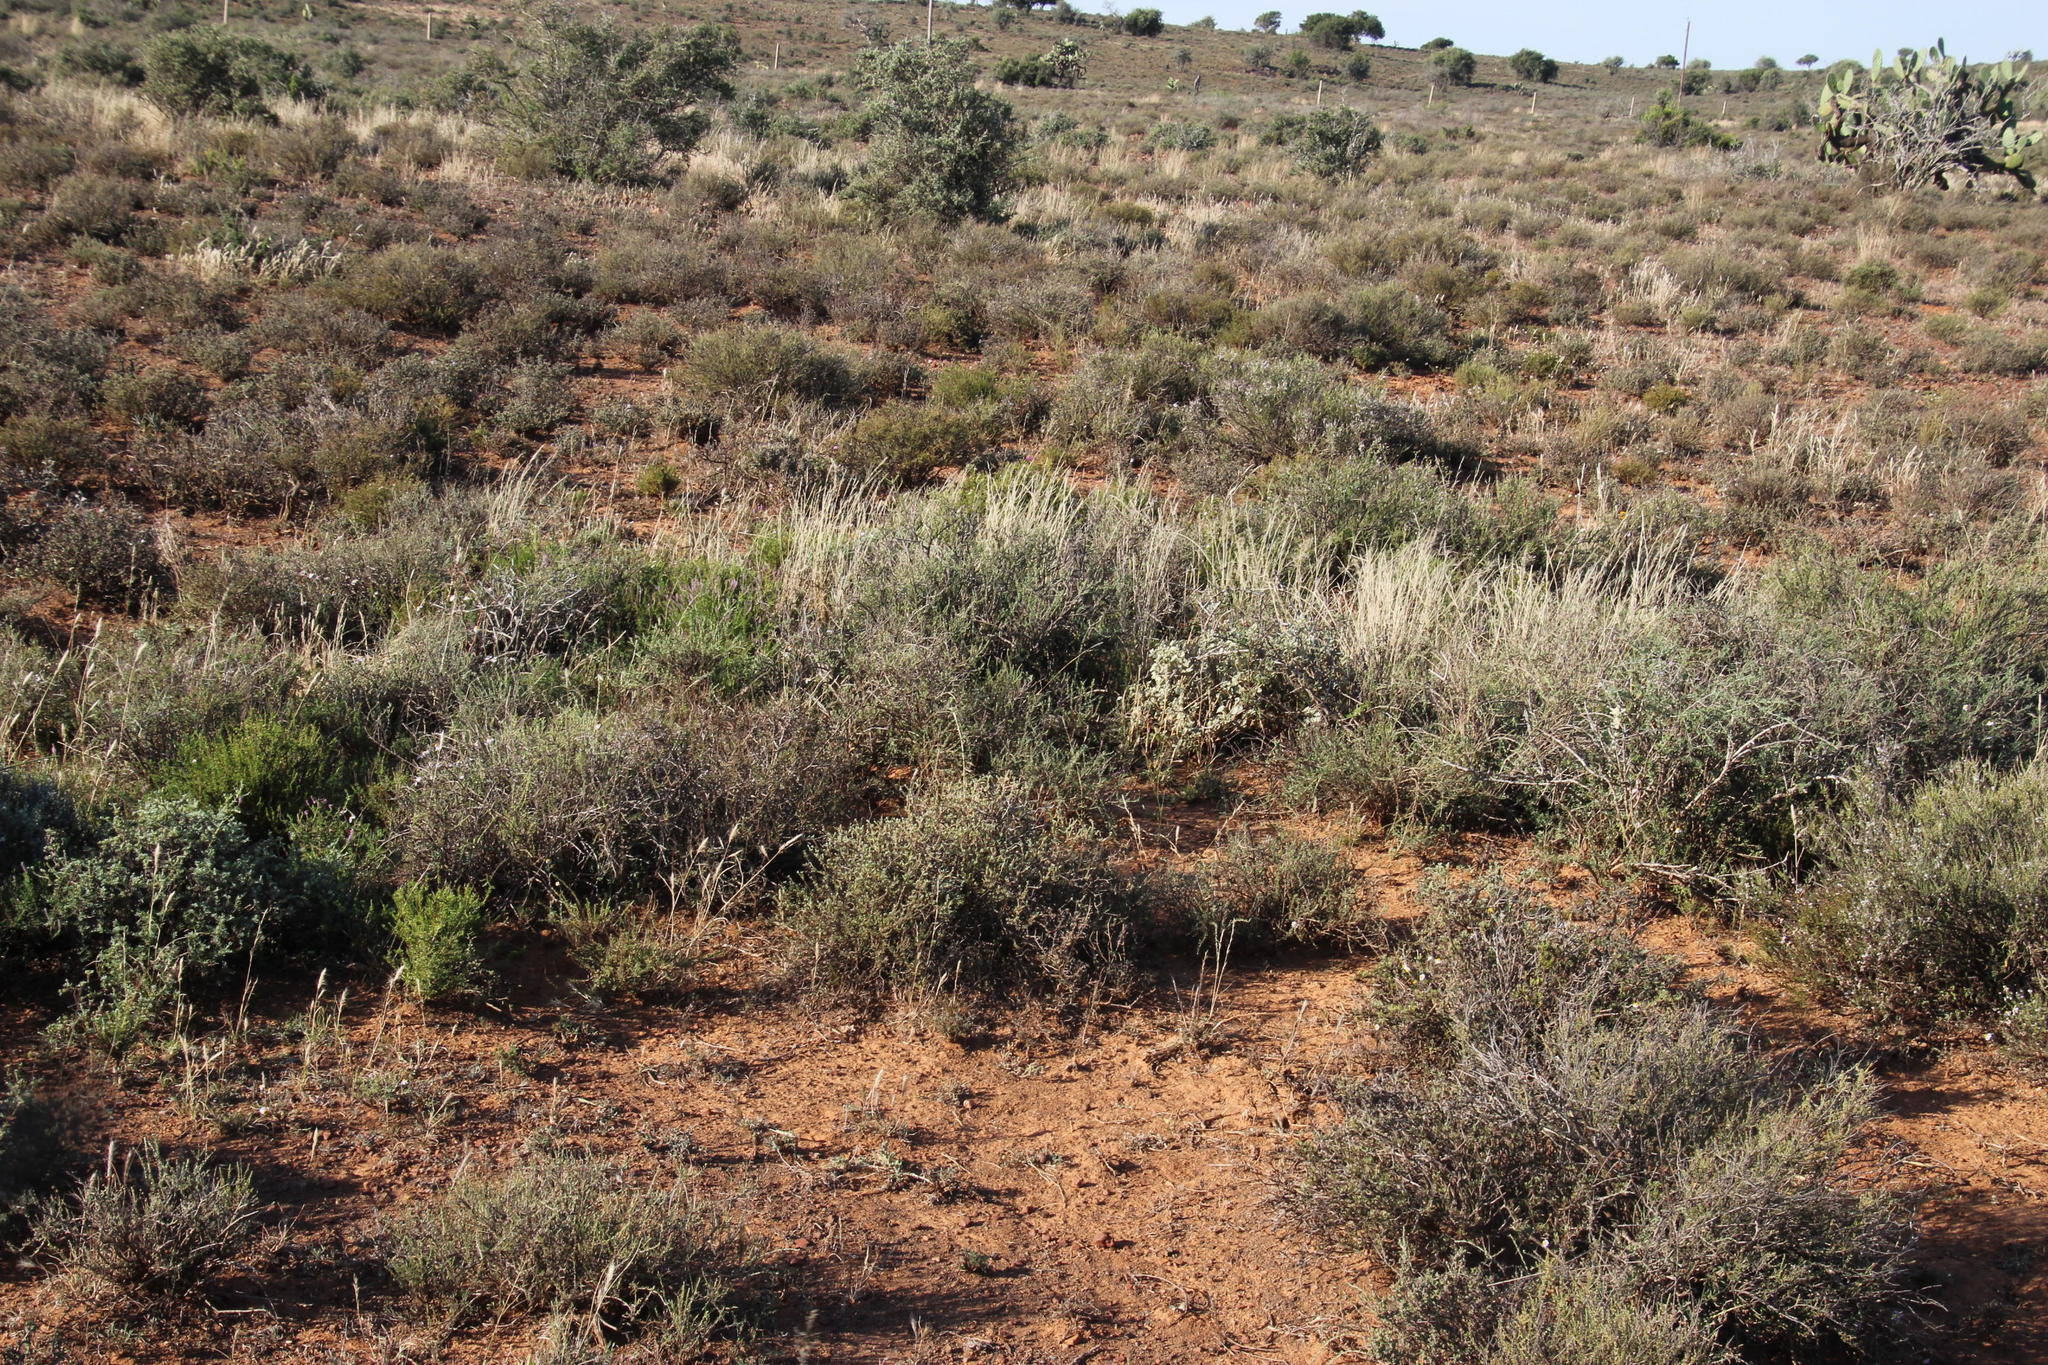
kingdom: Animalia
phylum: Arthropoda
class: Insecta
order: Blattodea
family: Hodotermitidae
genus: Microhodotermes
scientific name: Microhodotermes viator
